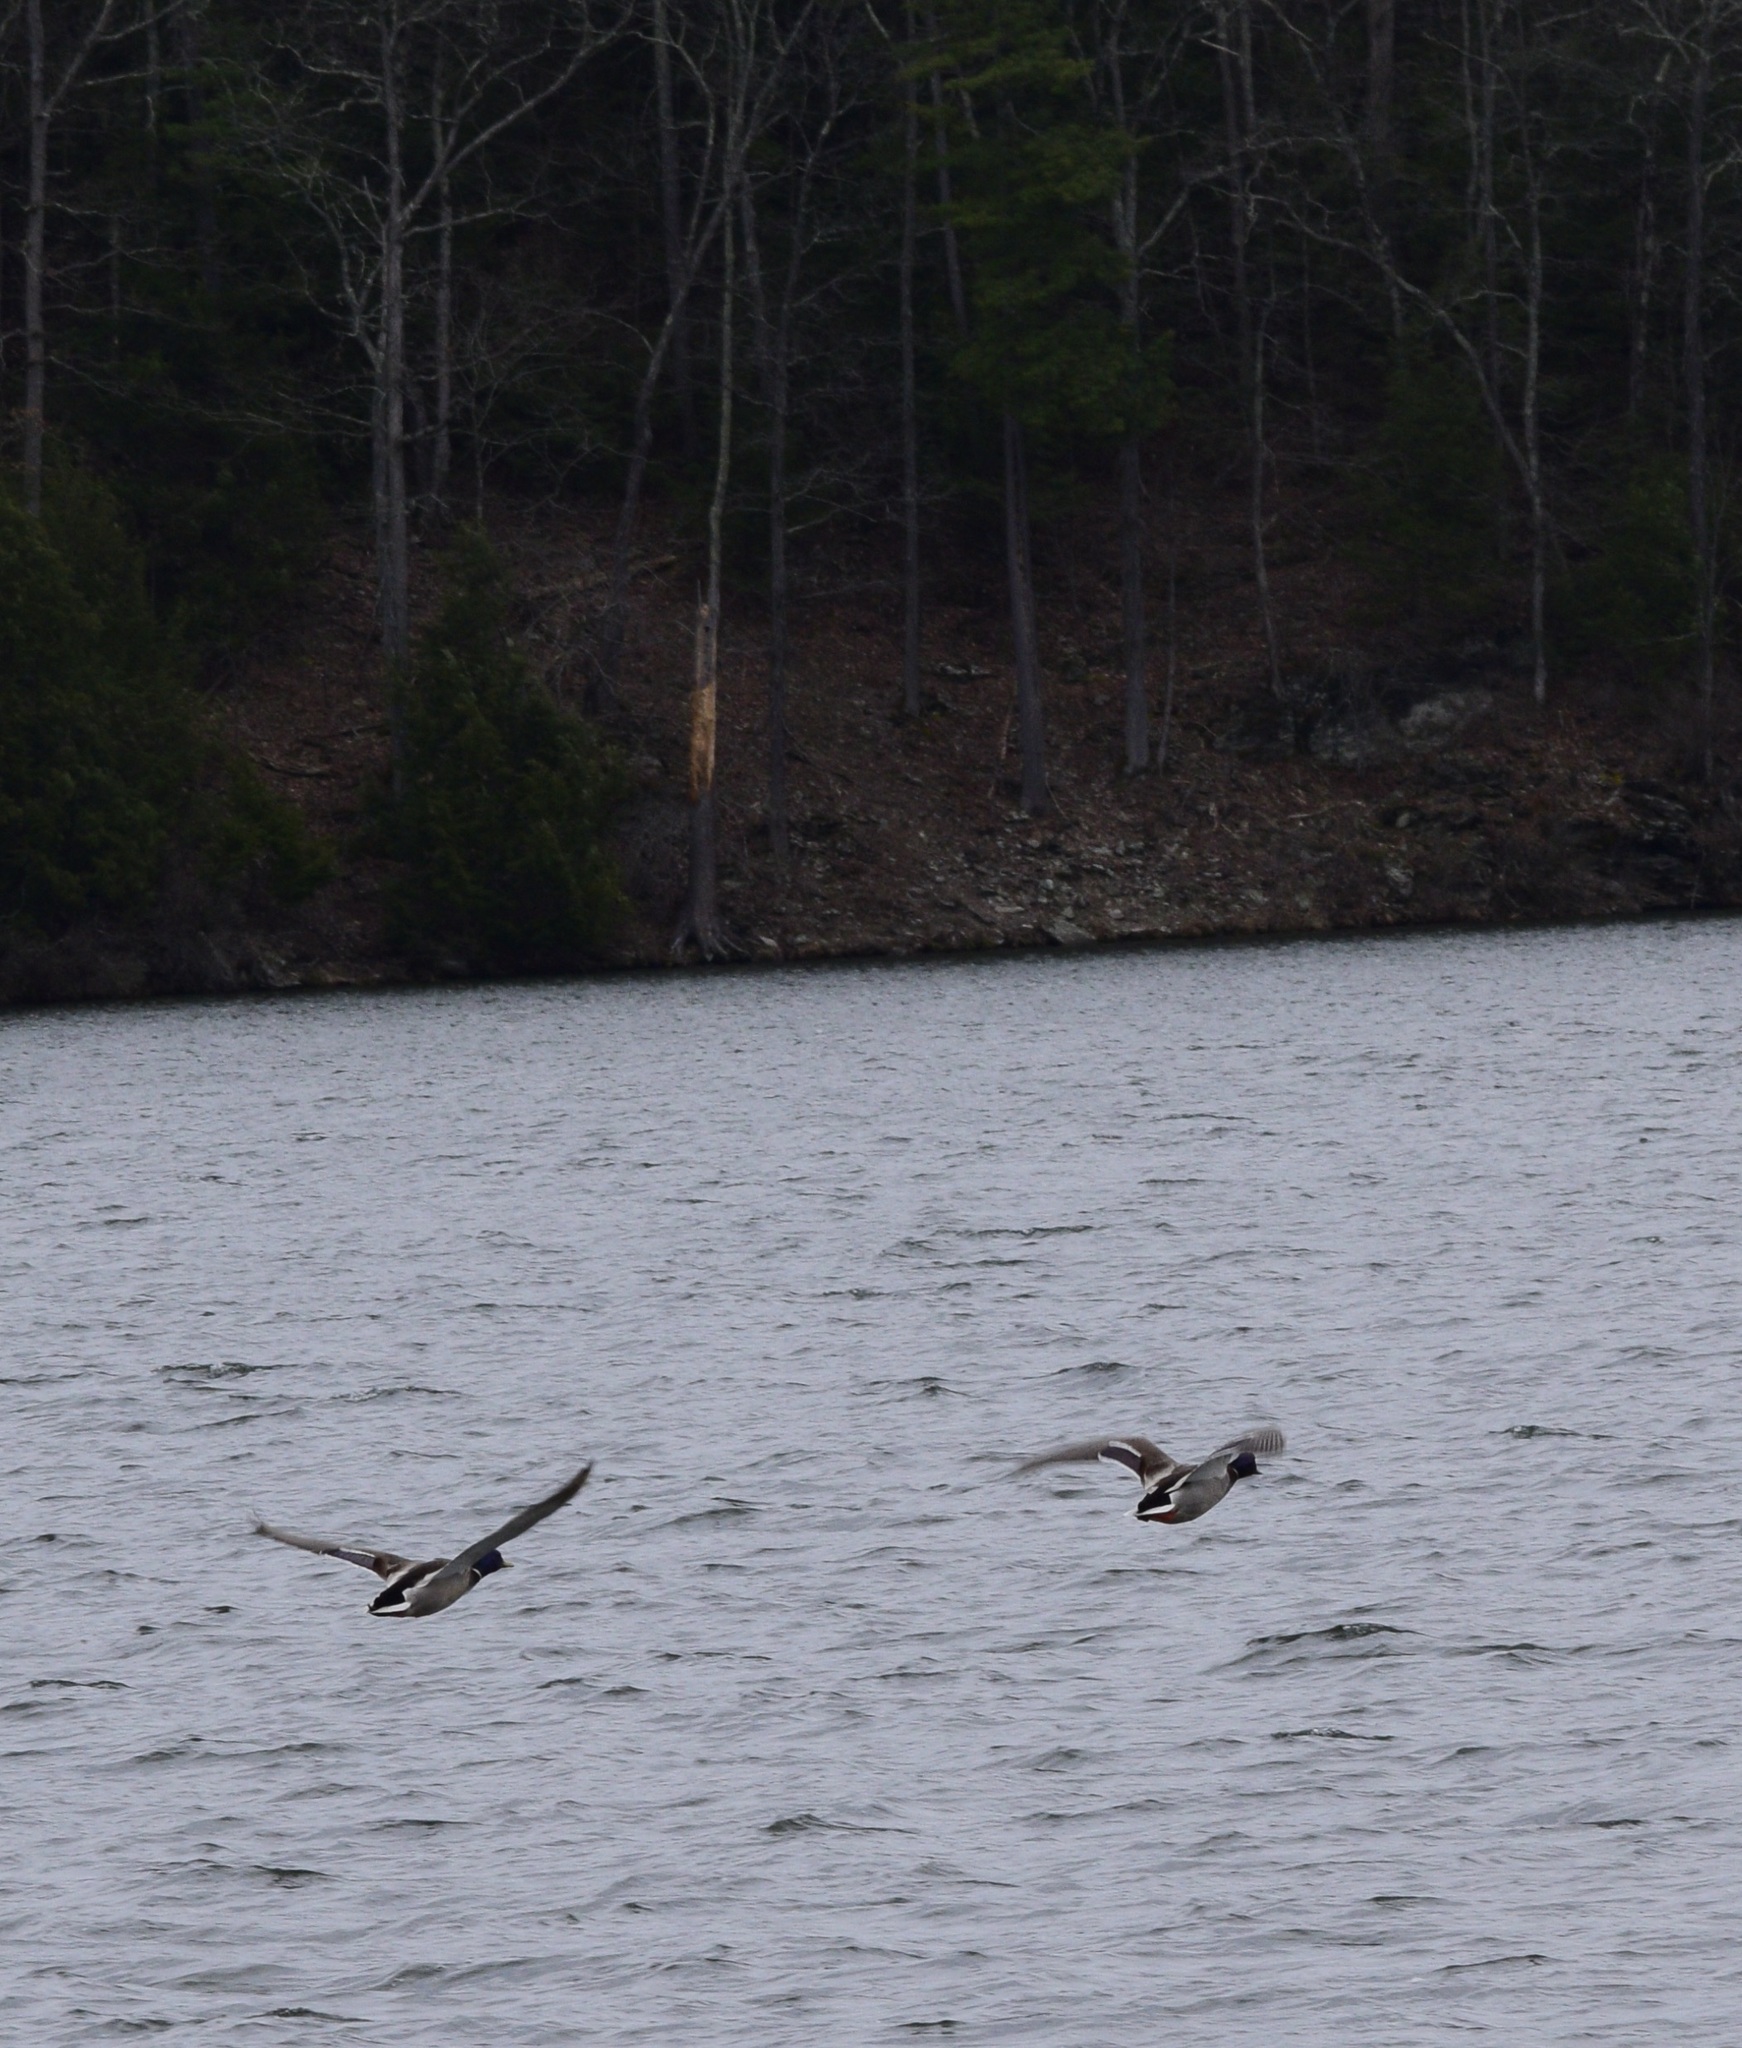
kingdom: Animalia
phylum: Chordata
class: Aves
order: Anseriformes
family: Anatidae
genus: Anas
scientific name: Anas platyrhynchos
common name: Mallard
